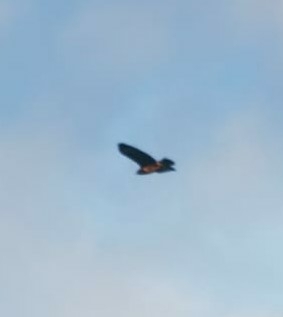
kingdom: Animalia
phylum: Chordata
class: Aves
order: Accipitriformes
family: Accipitridae
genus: Buteo
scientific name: Buteo buteo
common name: Common buzzard
